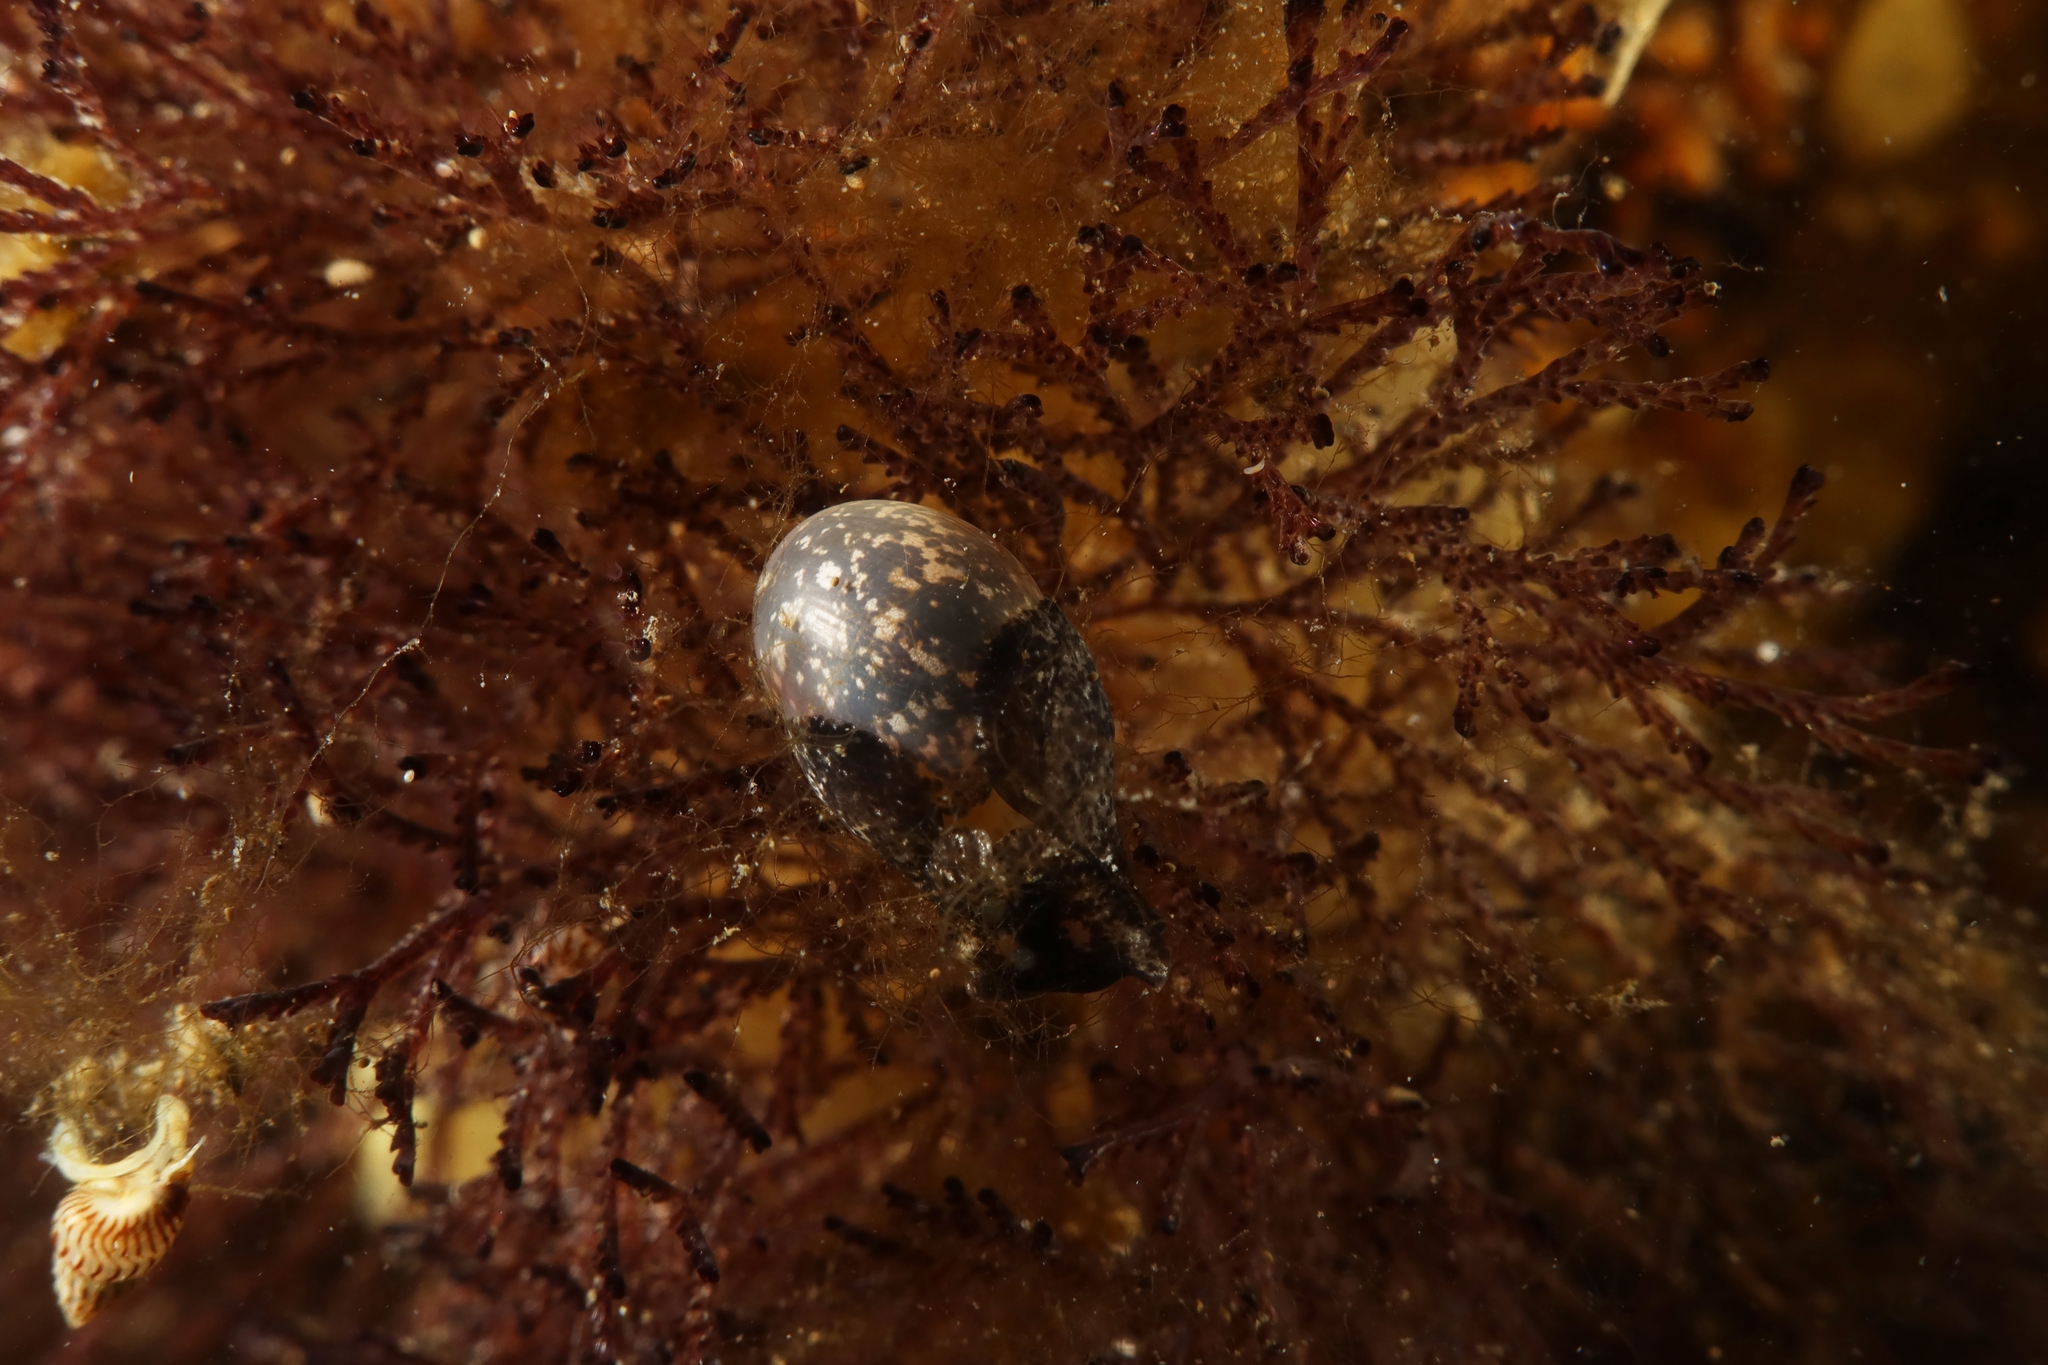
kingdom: Animalia
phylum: Mollusca
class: Gastropoda
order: Cephalaspidea
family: Haminoeidae
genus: Haminoea
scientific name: Haminoea exigua
